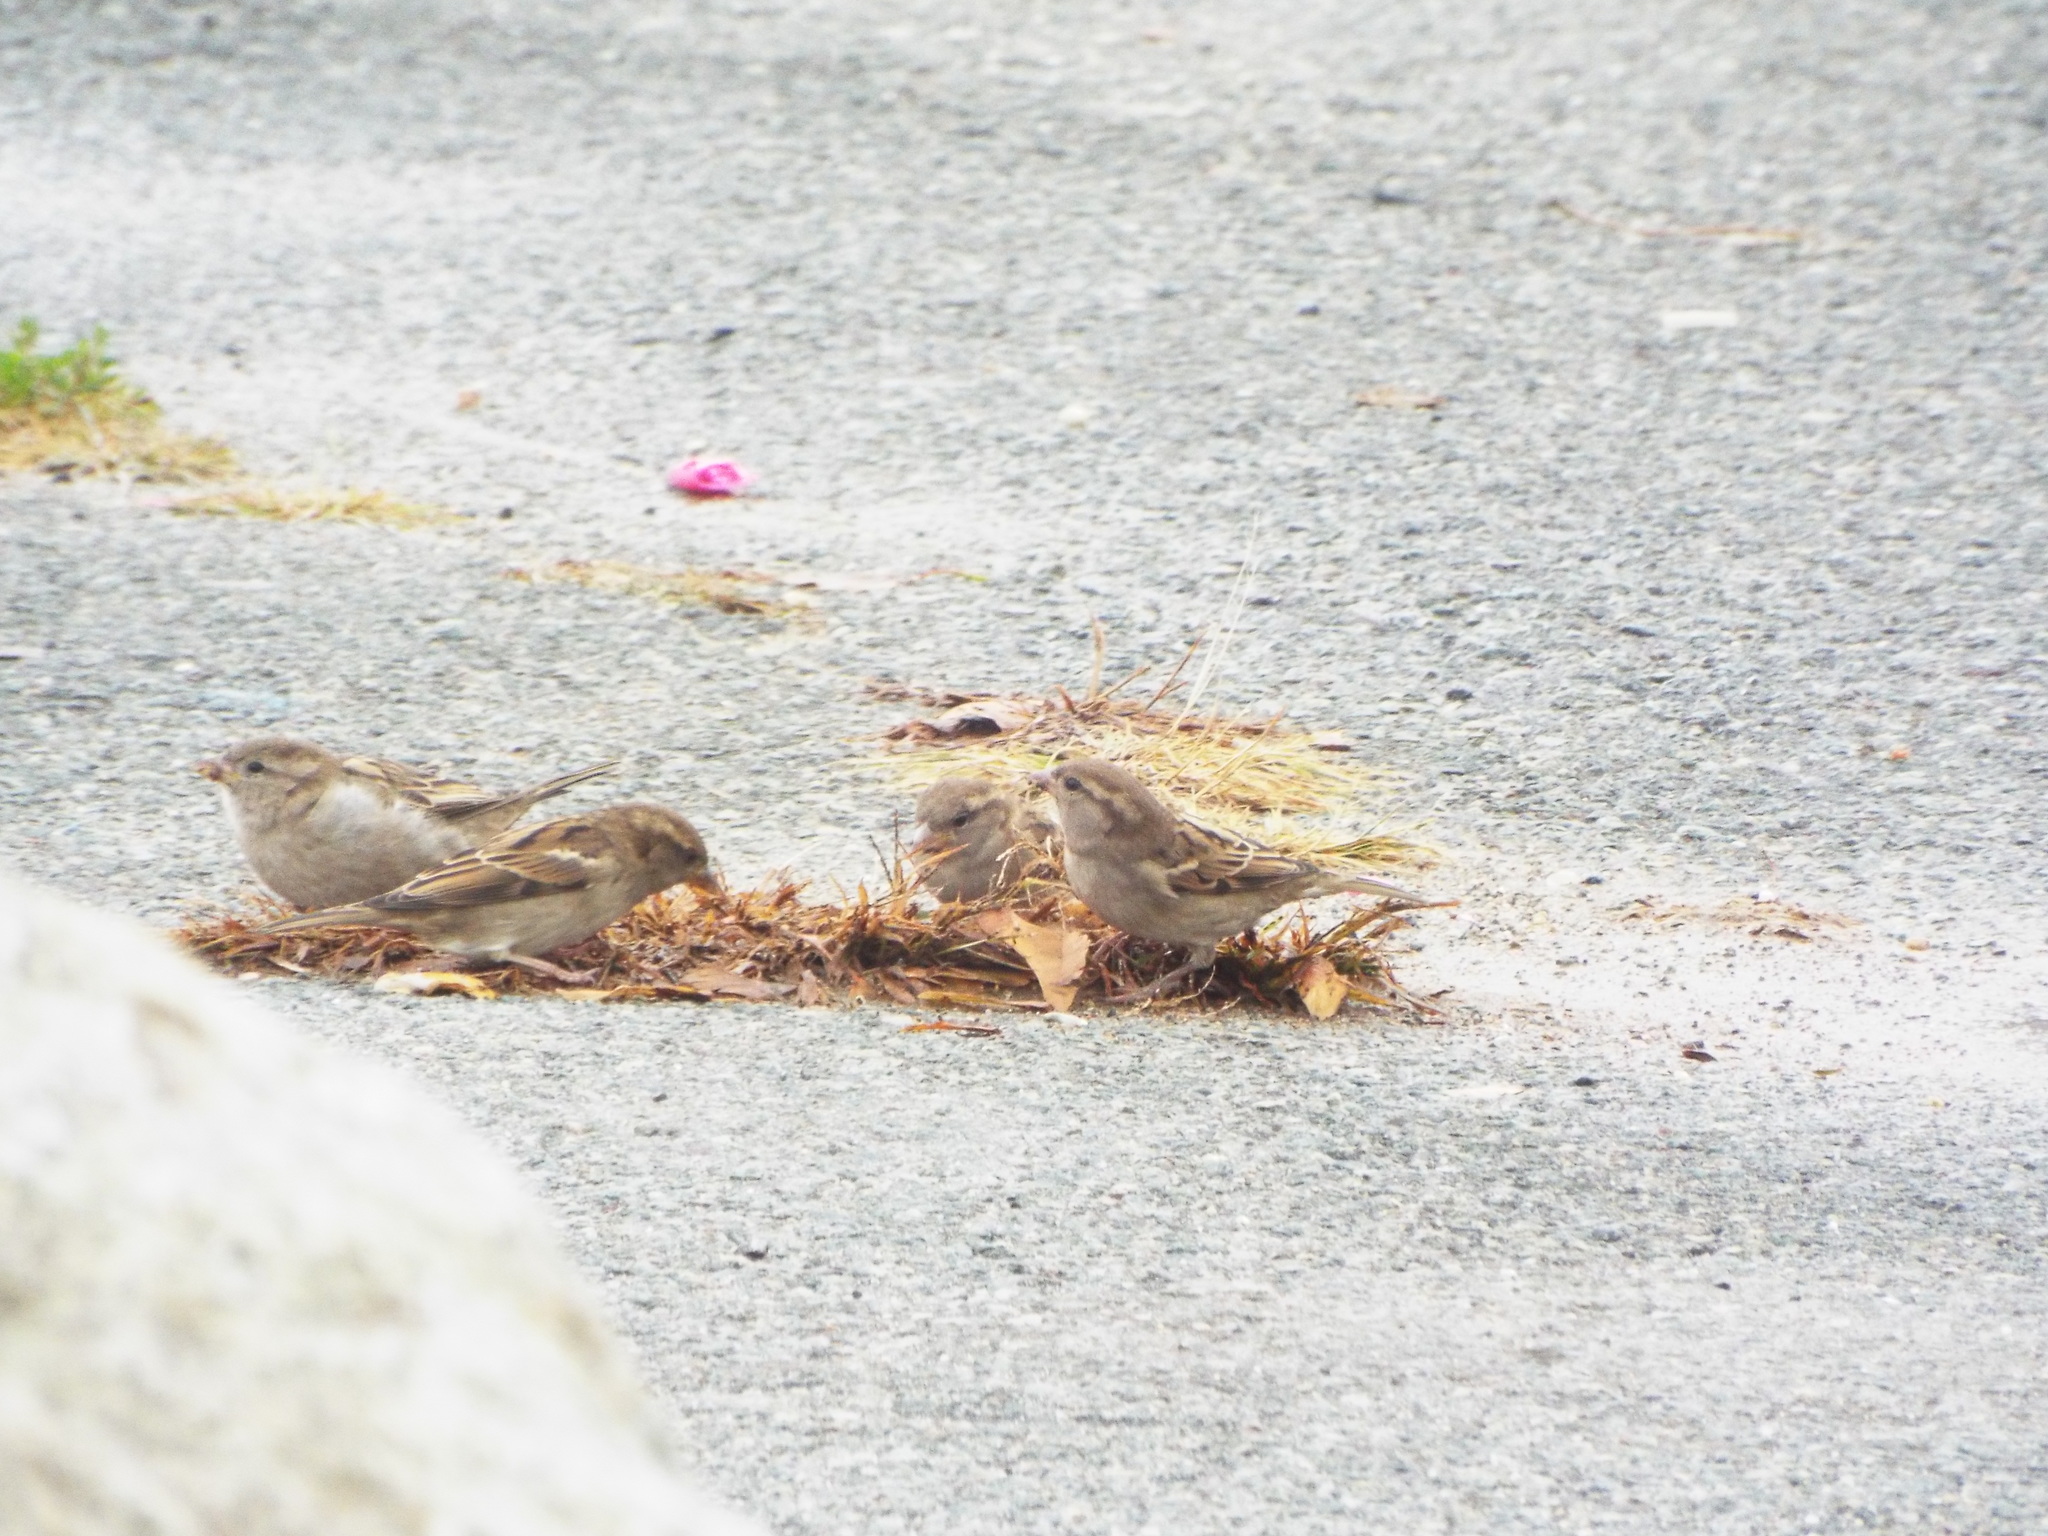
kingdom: Animalia
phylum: Chordata
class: Aves
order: Passeriformes
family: Passeridae
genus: Passer
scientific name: Passer domesticus
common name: House sparrow
